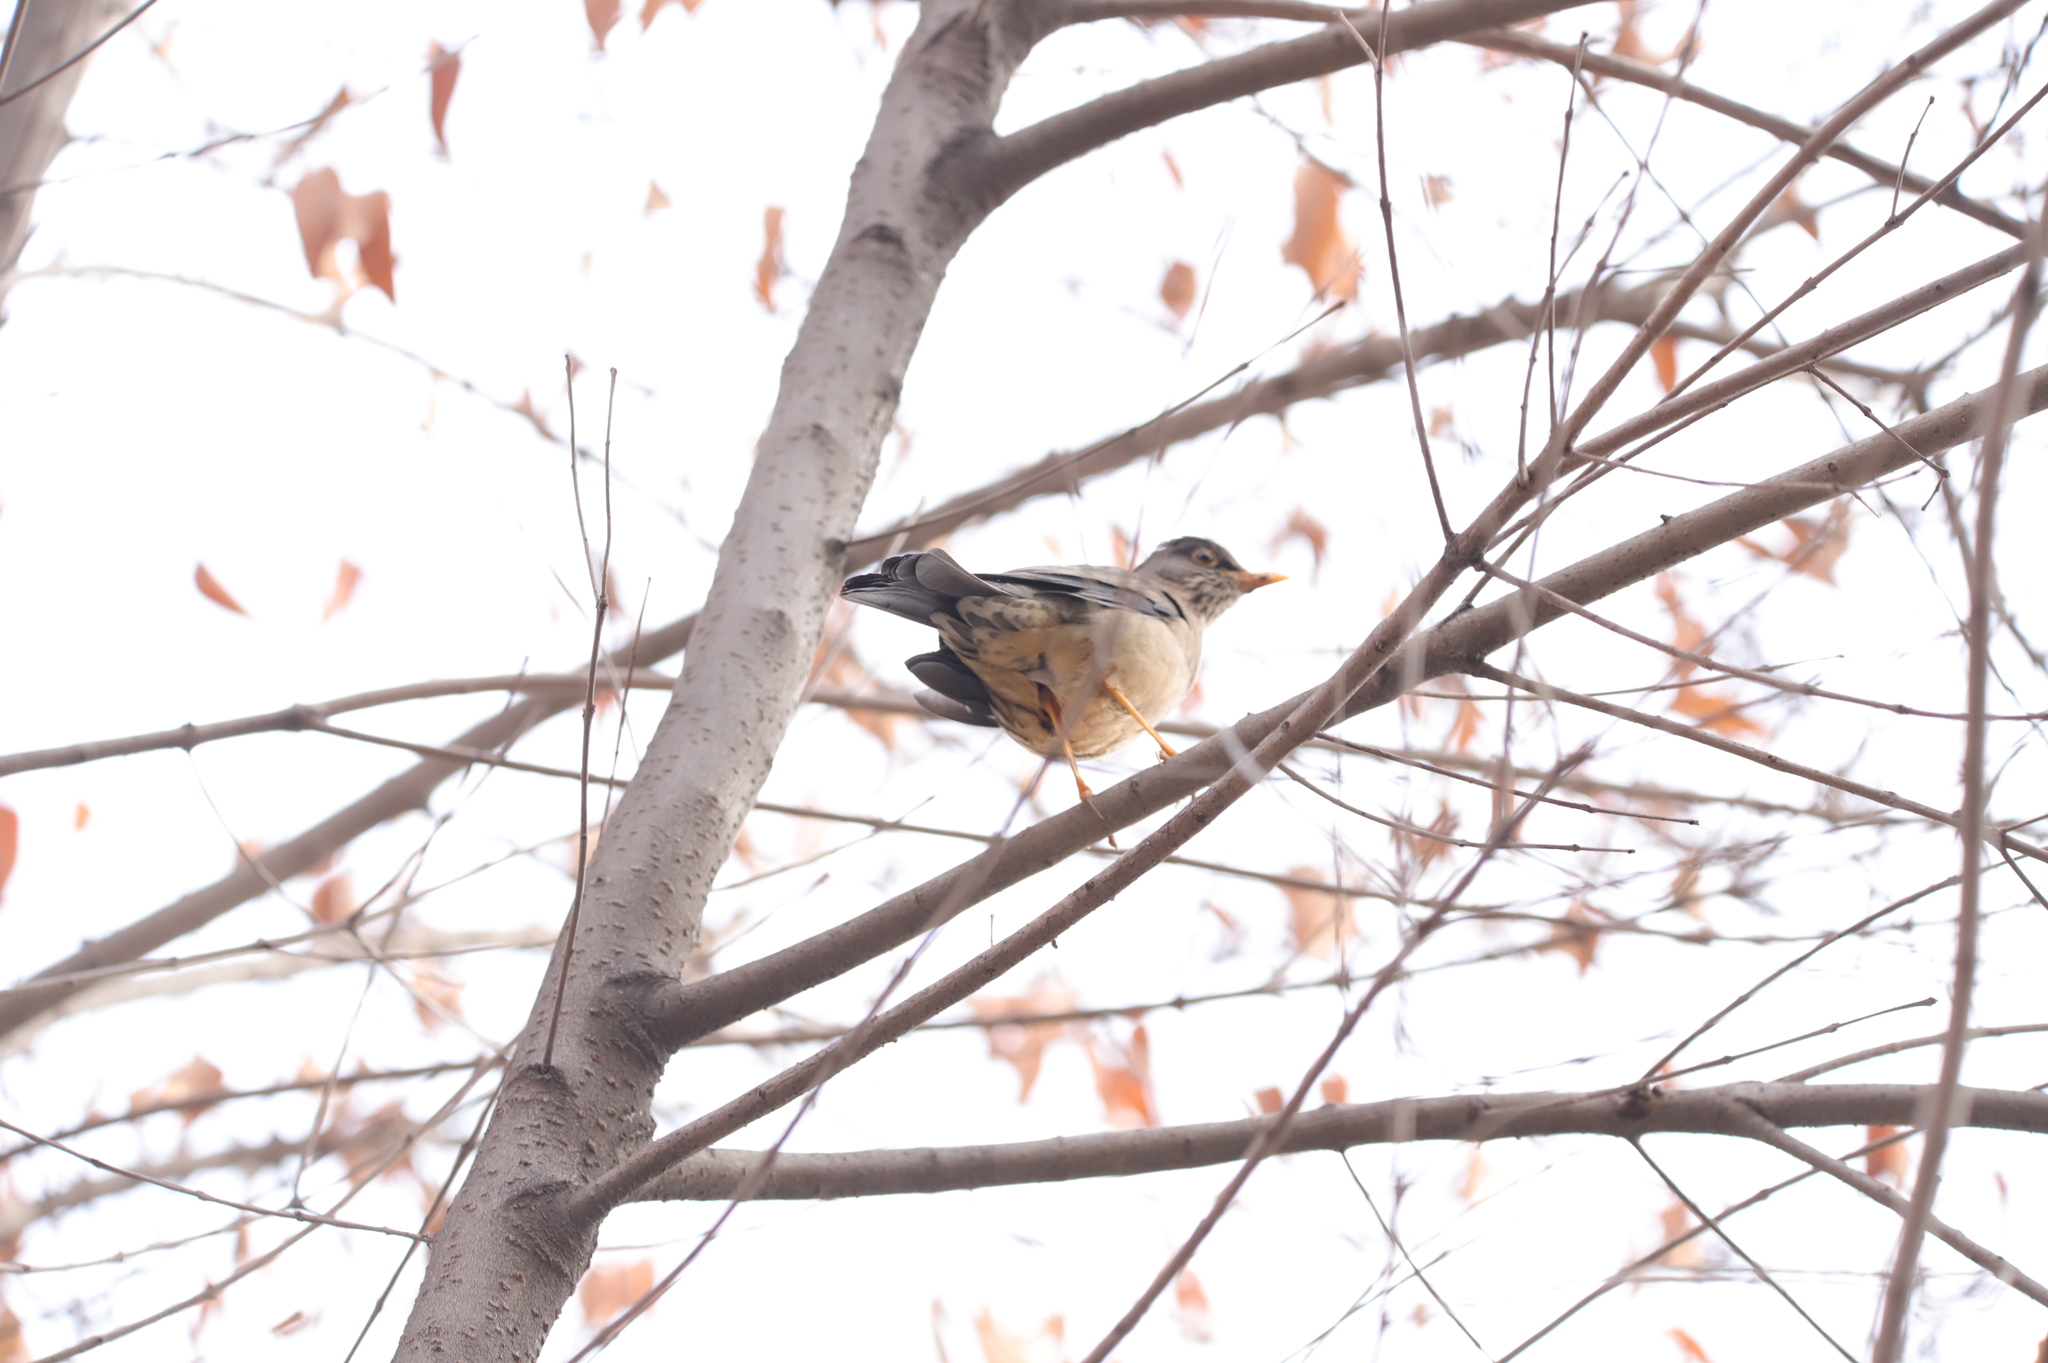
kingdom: Animalia
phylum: Chordata
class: Aves
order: Passeriformes
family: Turdidae
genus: Turdus
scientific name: Turdus falcklandii
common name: Austral thrush
